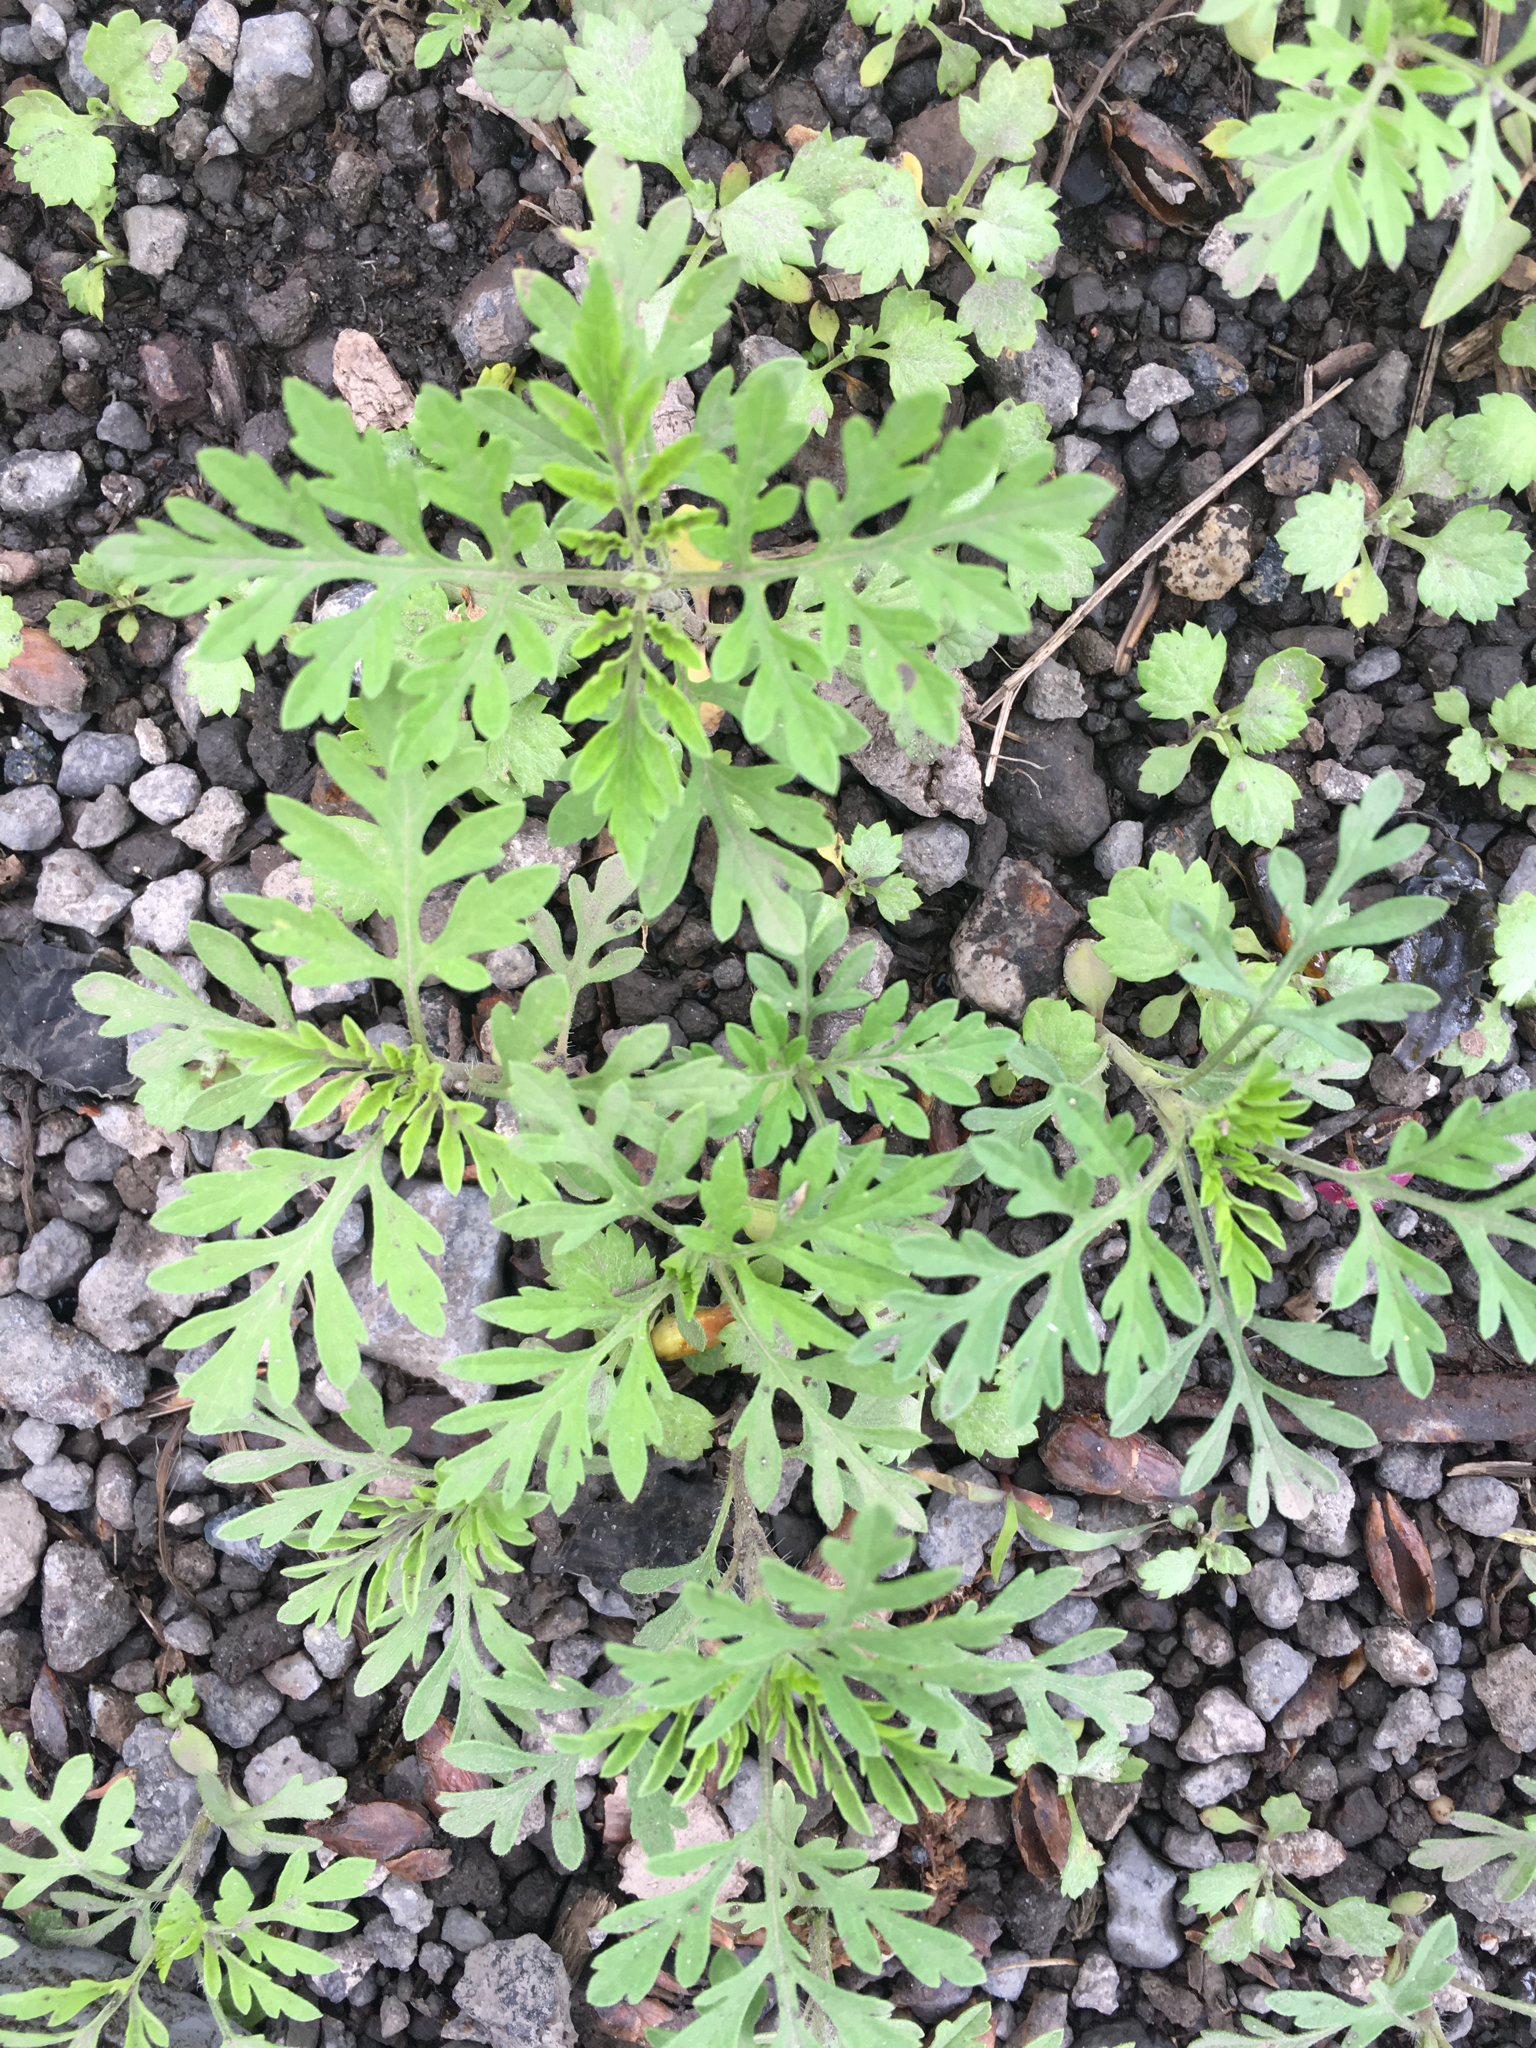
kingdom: Plantae
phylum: Tracheophyta
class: Magnoliopsida
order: Asterales
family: Asteraceae
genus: Ambrosia
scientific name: Ambrosia artemisiifolia
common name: Annual ragweed
